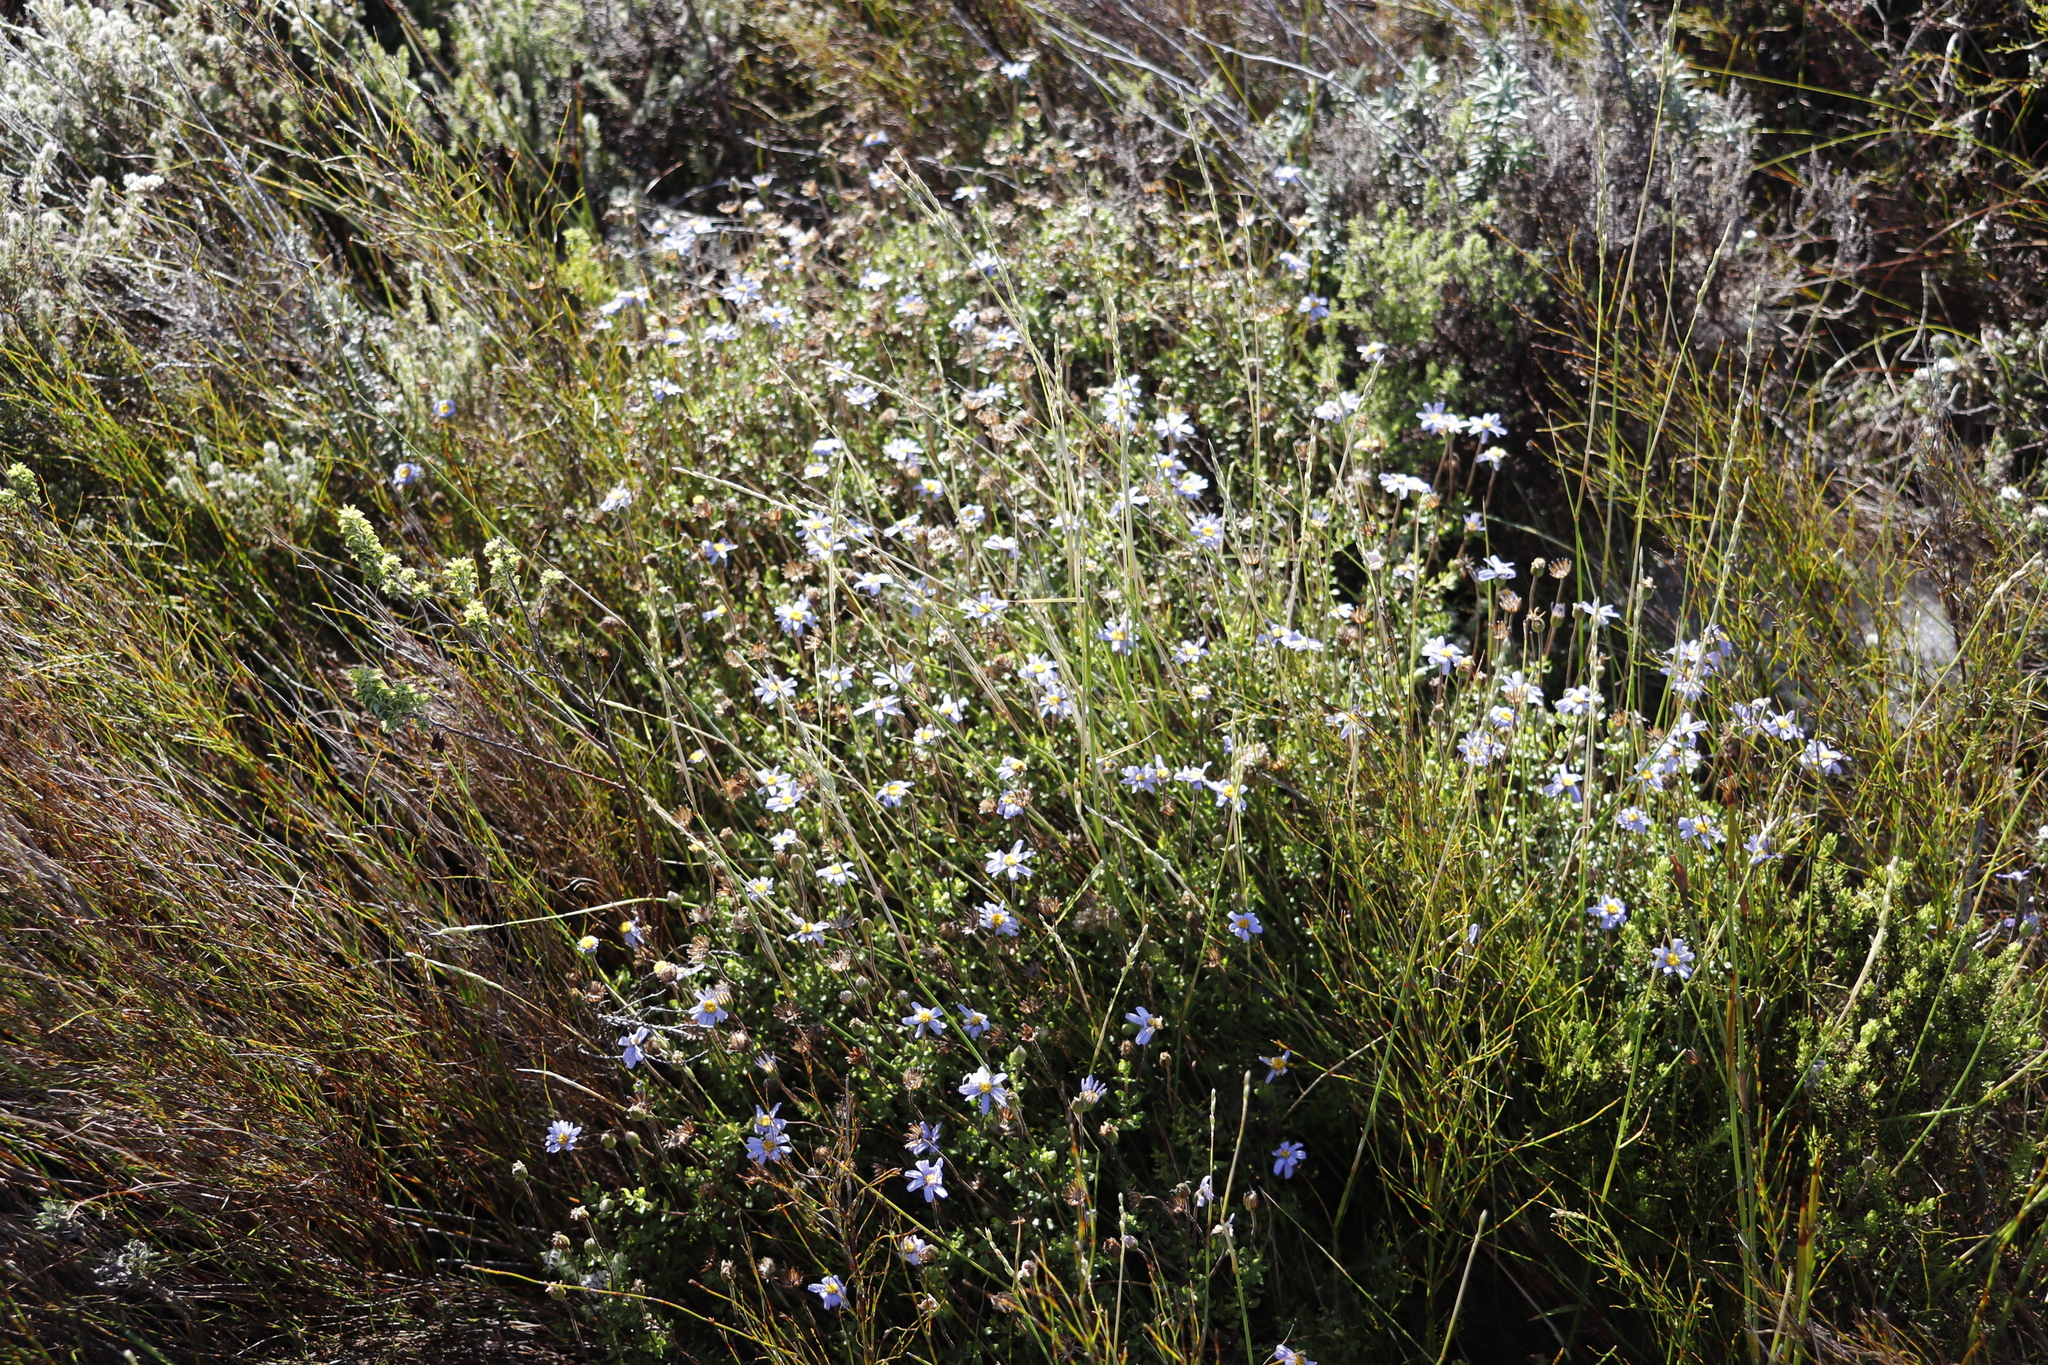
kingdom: Plantae
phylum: Tracheophyta
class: Magnoliopsida
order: Asterales
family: Asteraceae
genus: Felicia
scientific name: Felicia aethiopica
